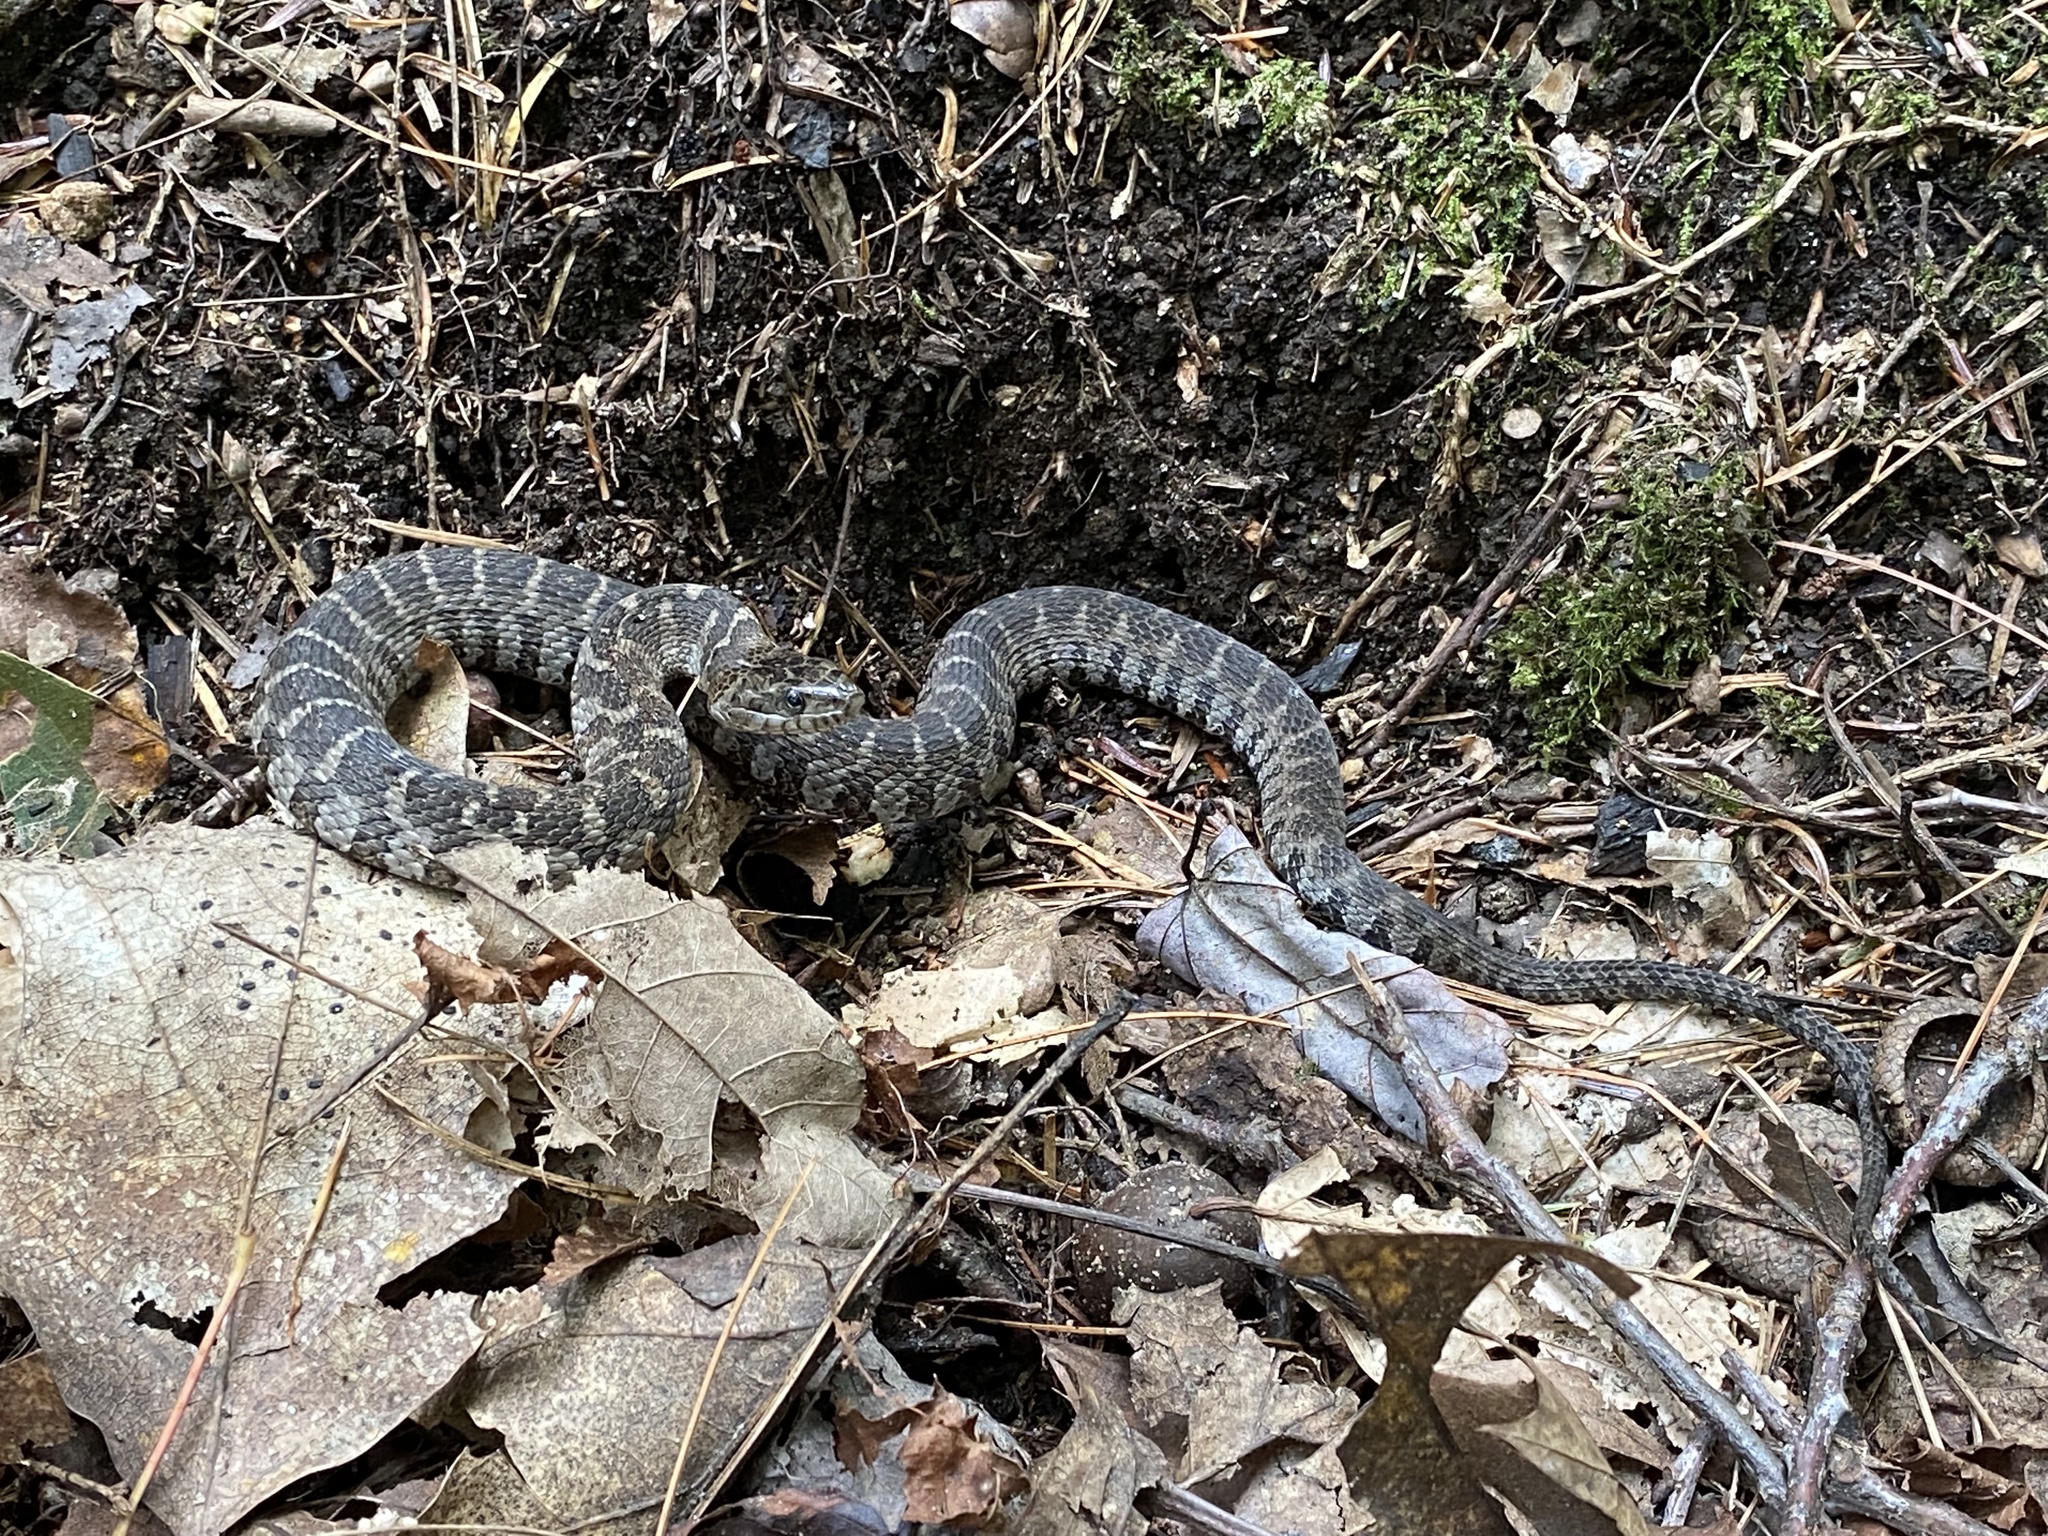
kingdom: Animalia
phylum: Chordata
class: Squamata
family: Colubridae
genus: Nerodia
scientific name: Nerodia sipedon
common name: Northern water snake
